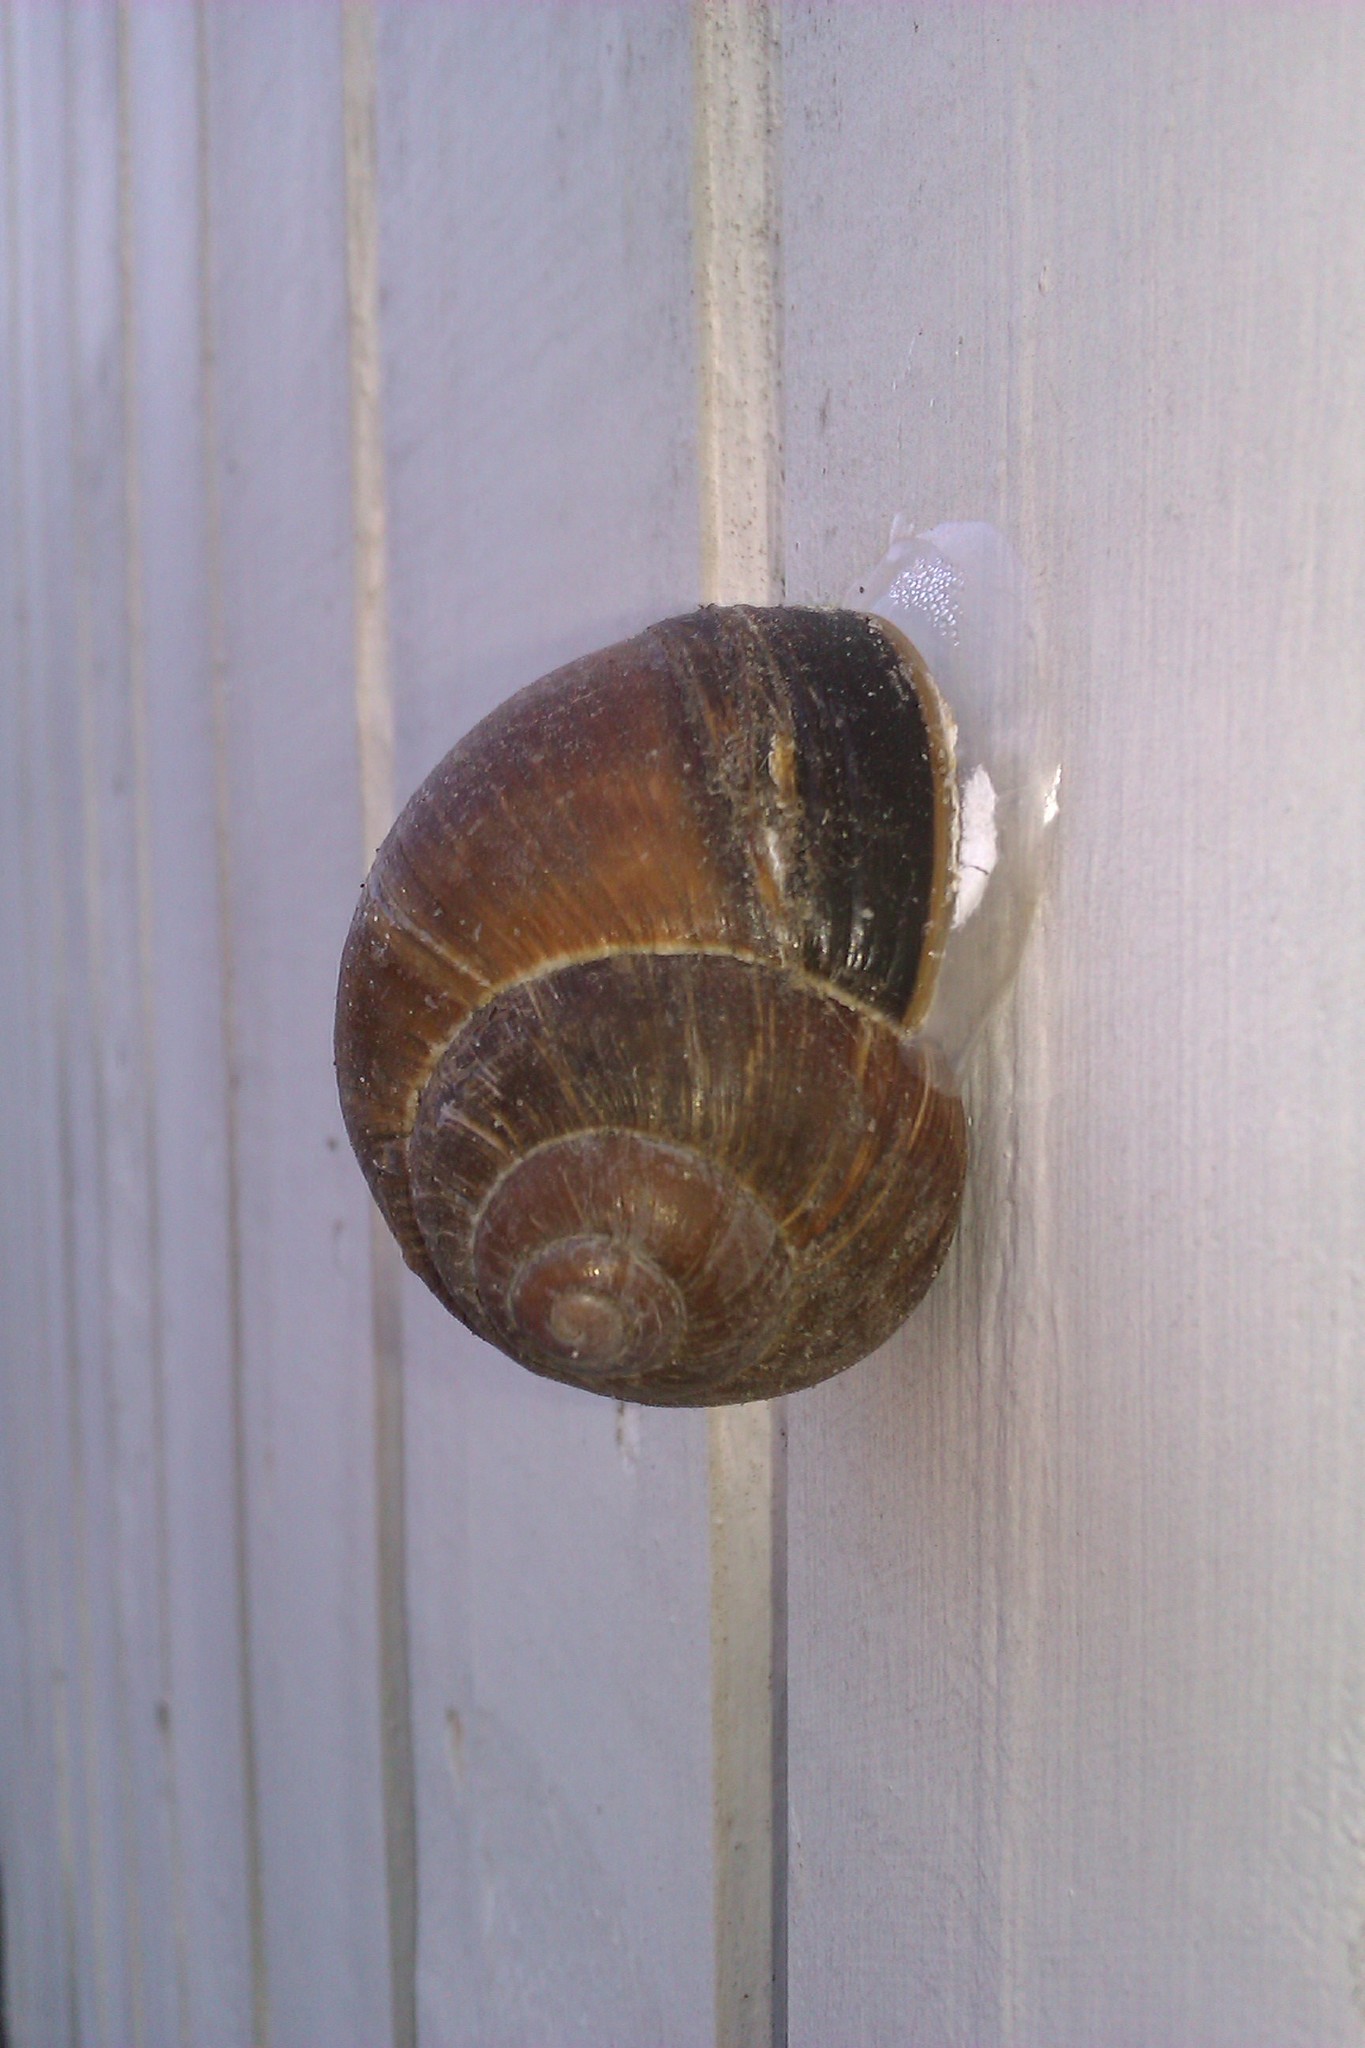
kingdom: Animalia
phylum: Mollusca
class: Gastropoda
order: Stylommatophora
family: Helicidae
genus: Helix
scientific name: Helix pomatia
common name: Roman snail
